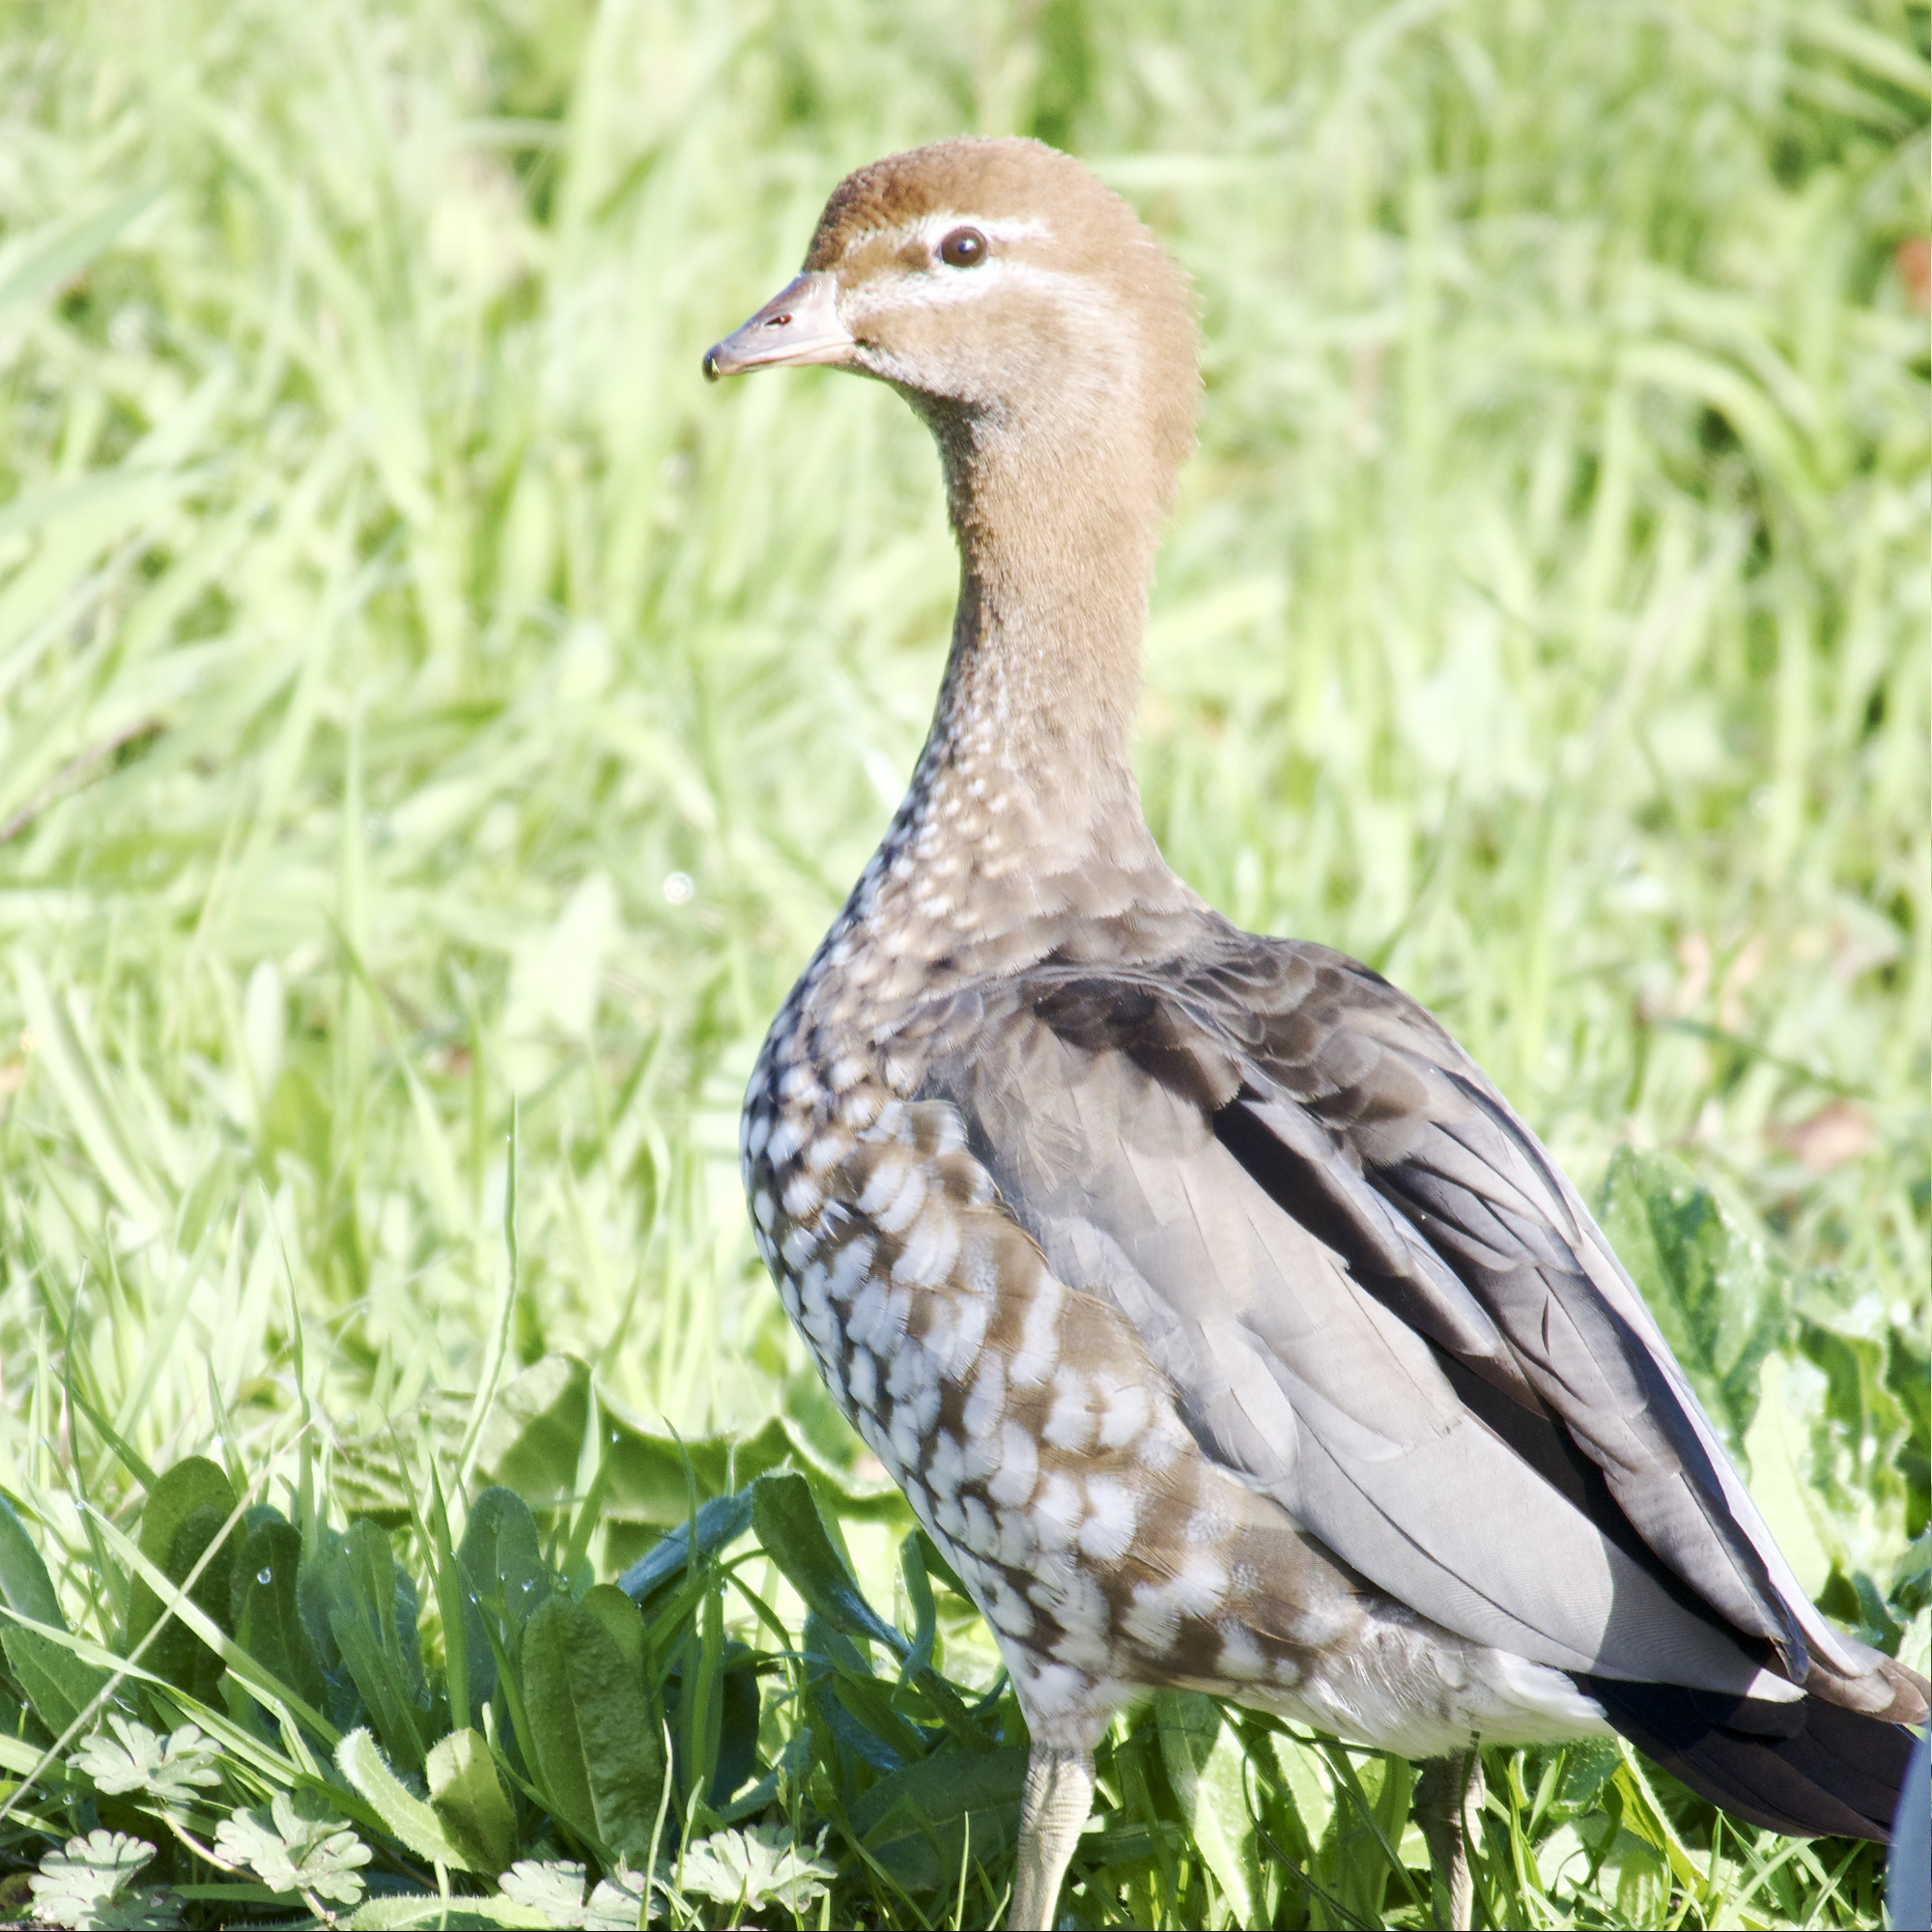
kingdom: Animalia
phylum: Chordata
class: Aves
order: Anseriformes
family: Anatidae
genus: Chenonetta
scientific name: Chenonetta jubata
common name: Maned duck
